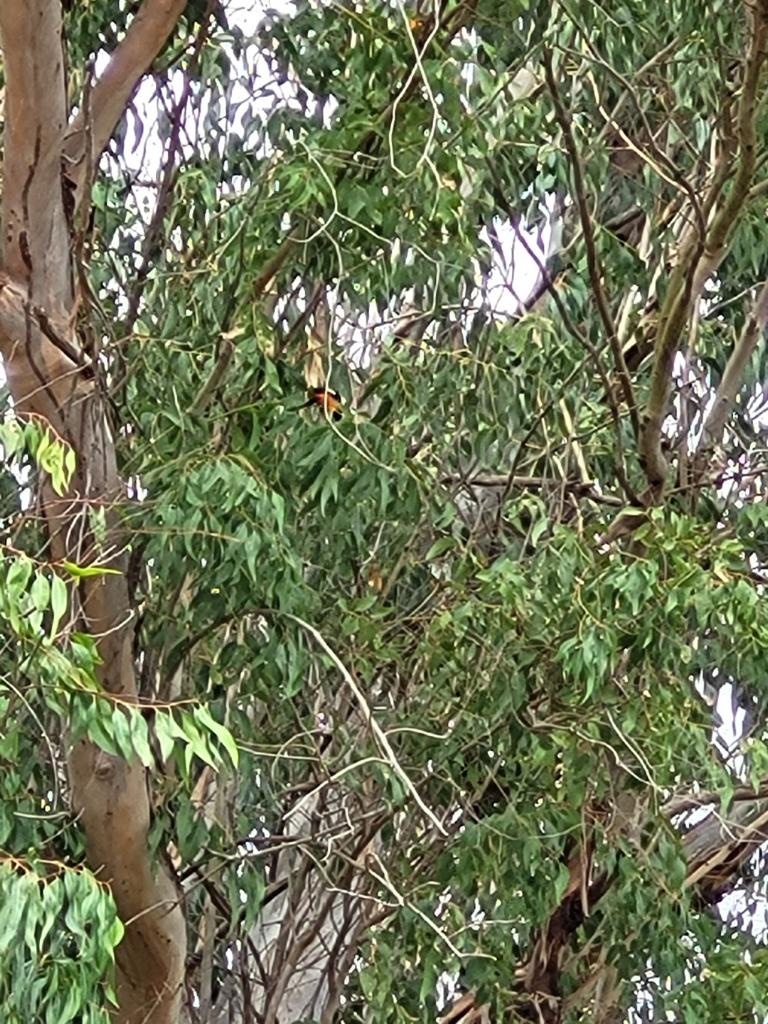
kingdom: Animalia
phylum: Chordata
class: Aves
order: Passeriformes
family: Icteridae
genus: Icterus
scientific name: Icterus icterus
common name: Venezuelan troupial
